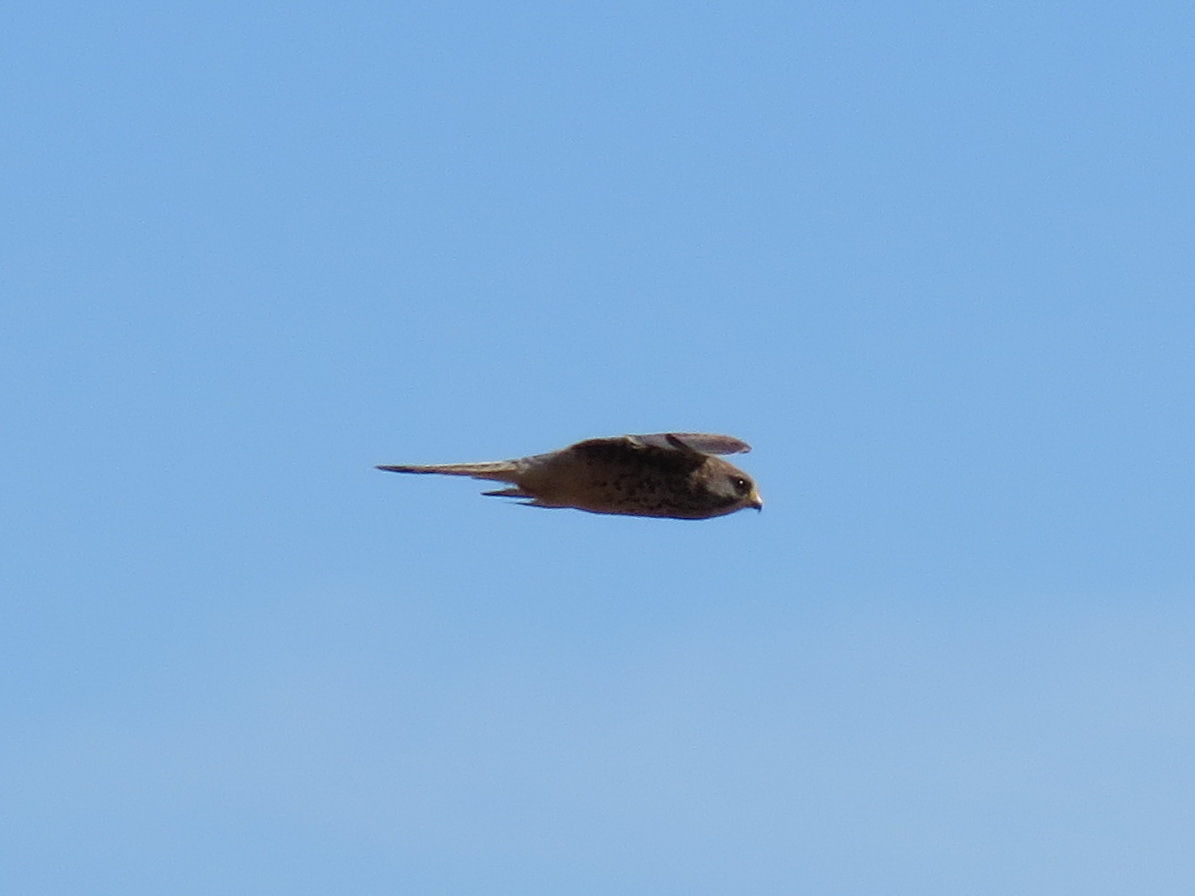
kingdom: Animalia
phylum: Chordata
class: Aves
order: Falconiformes
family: Falconidae
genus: Falco
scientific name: Falco tinnunculus
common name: Common kestrel
